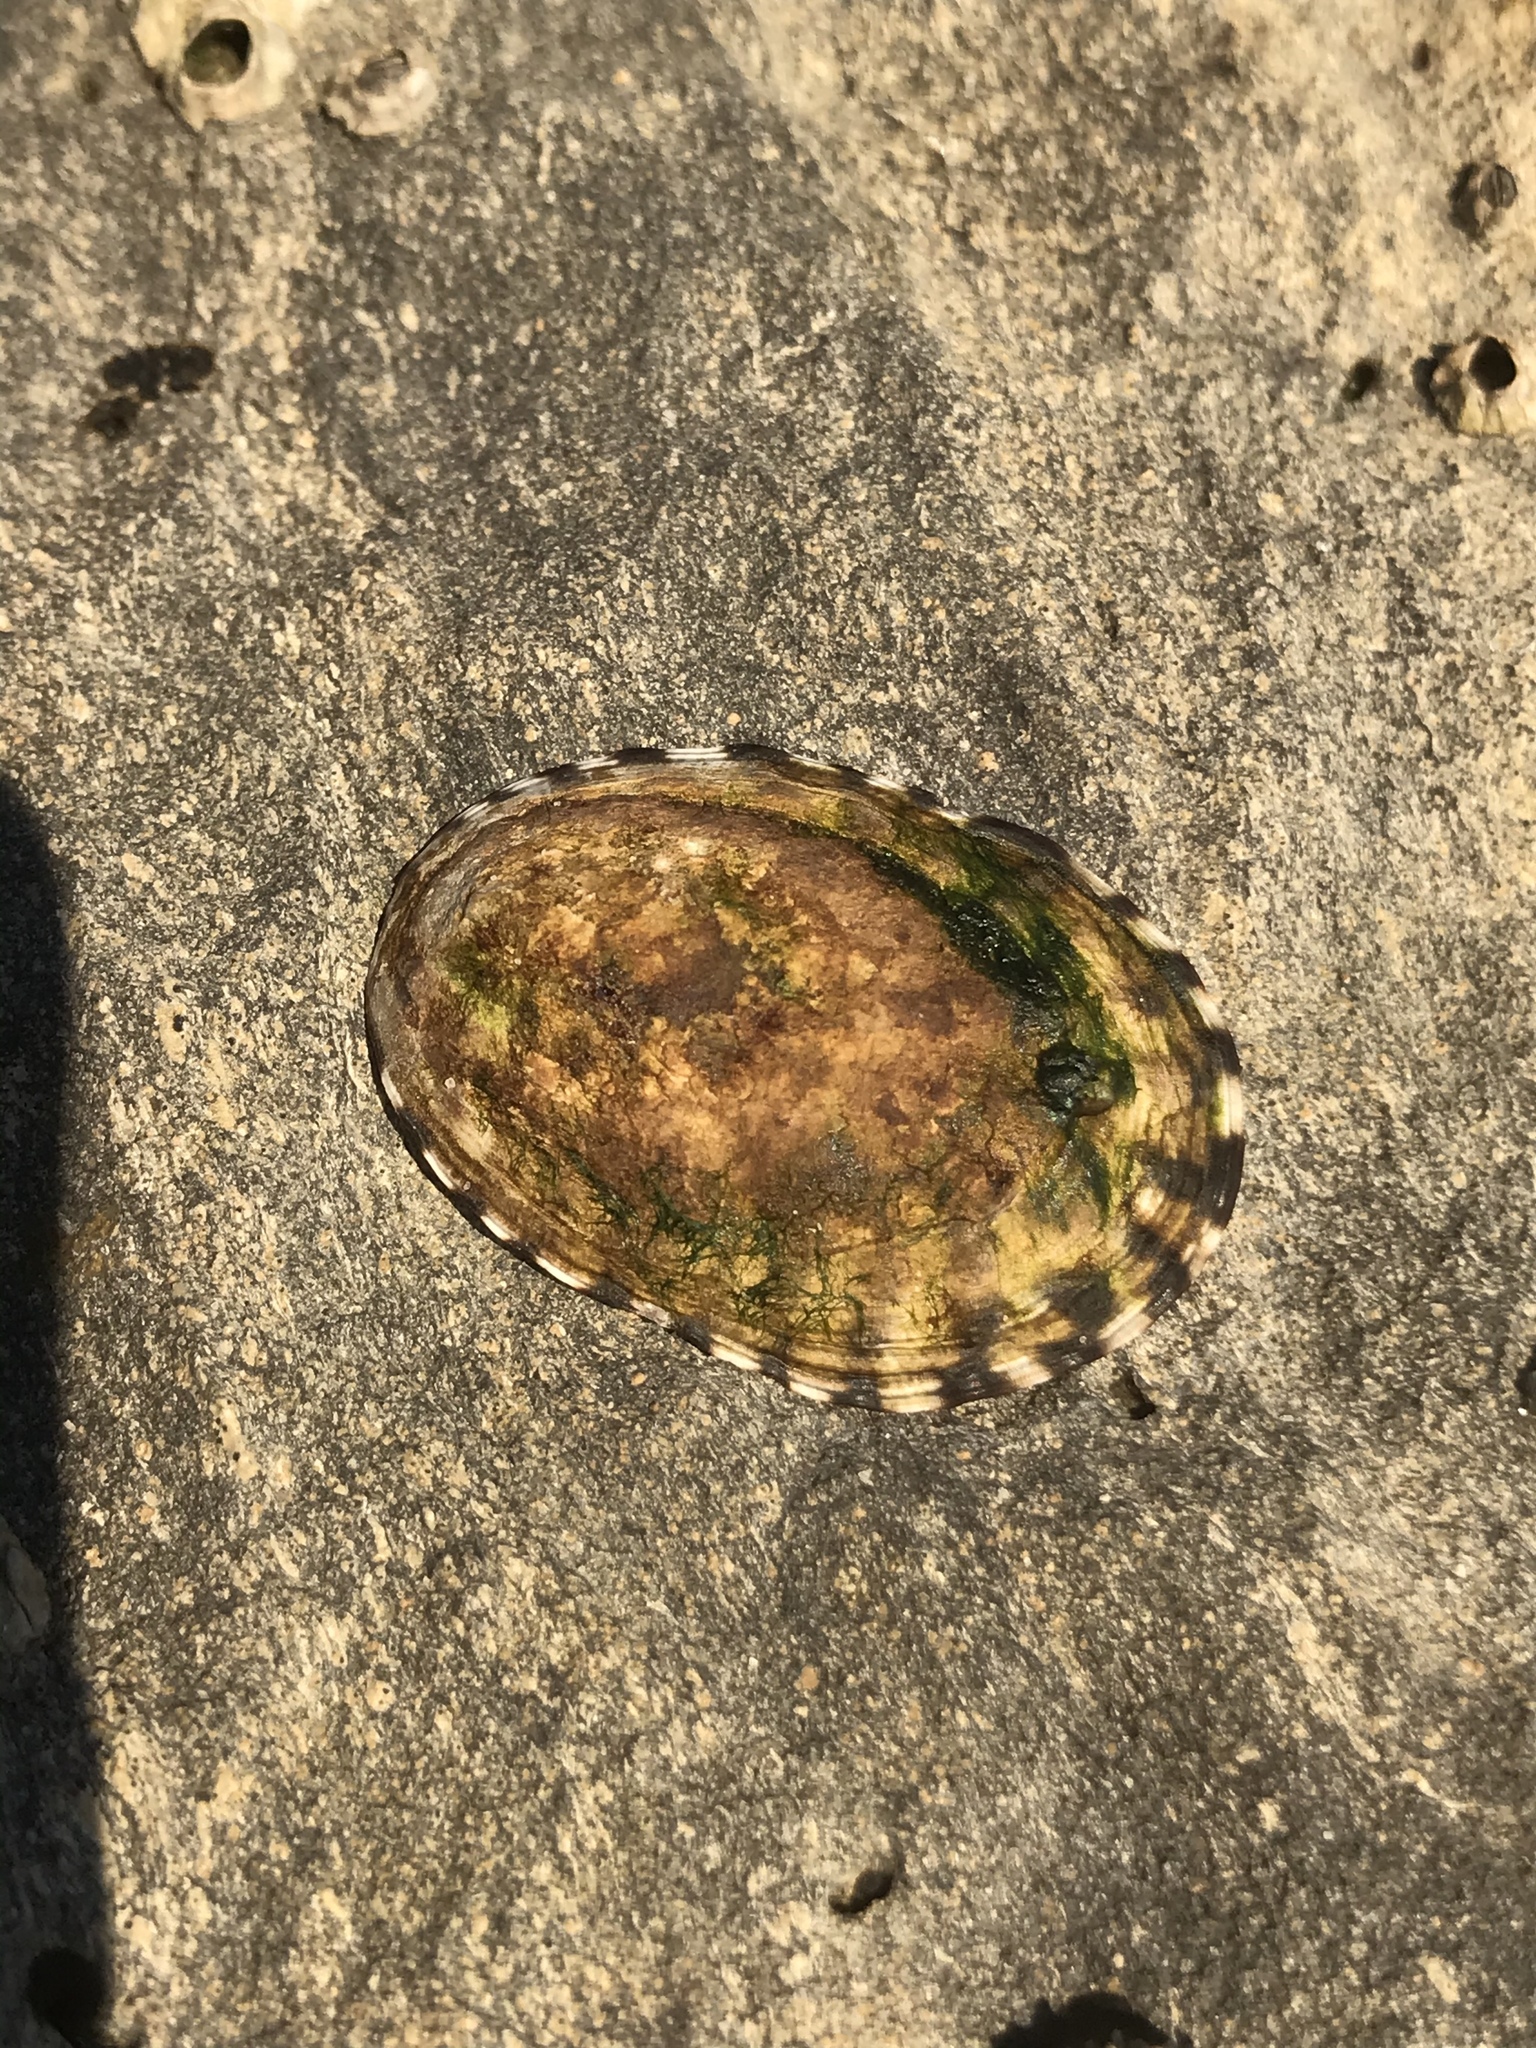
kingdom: Animalia
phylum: Mollusca
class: Gastropoda
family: Lottiidae
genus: Lottia
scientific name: Lottia gigantea
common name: Owl limpet
